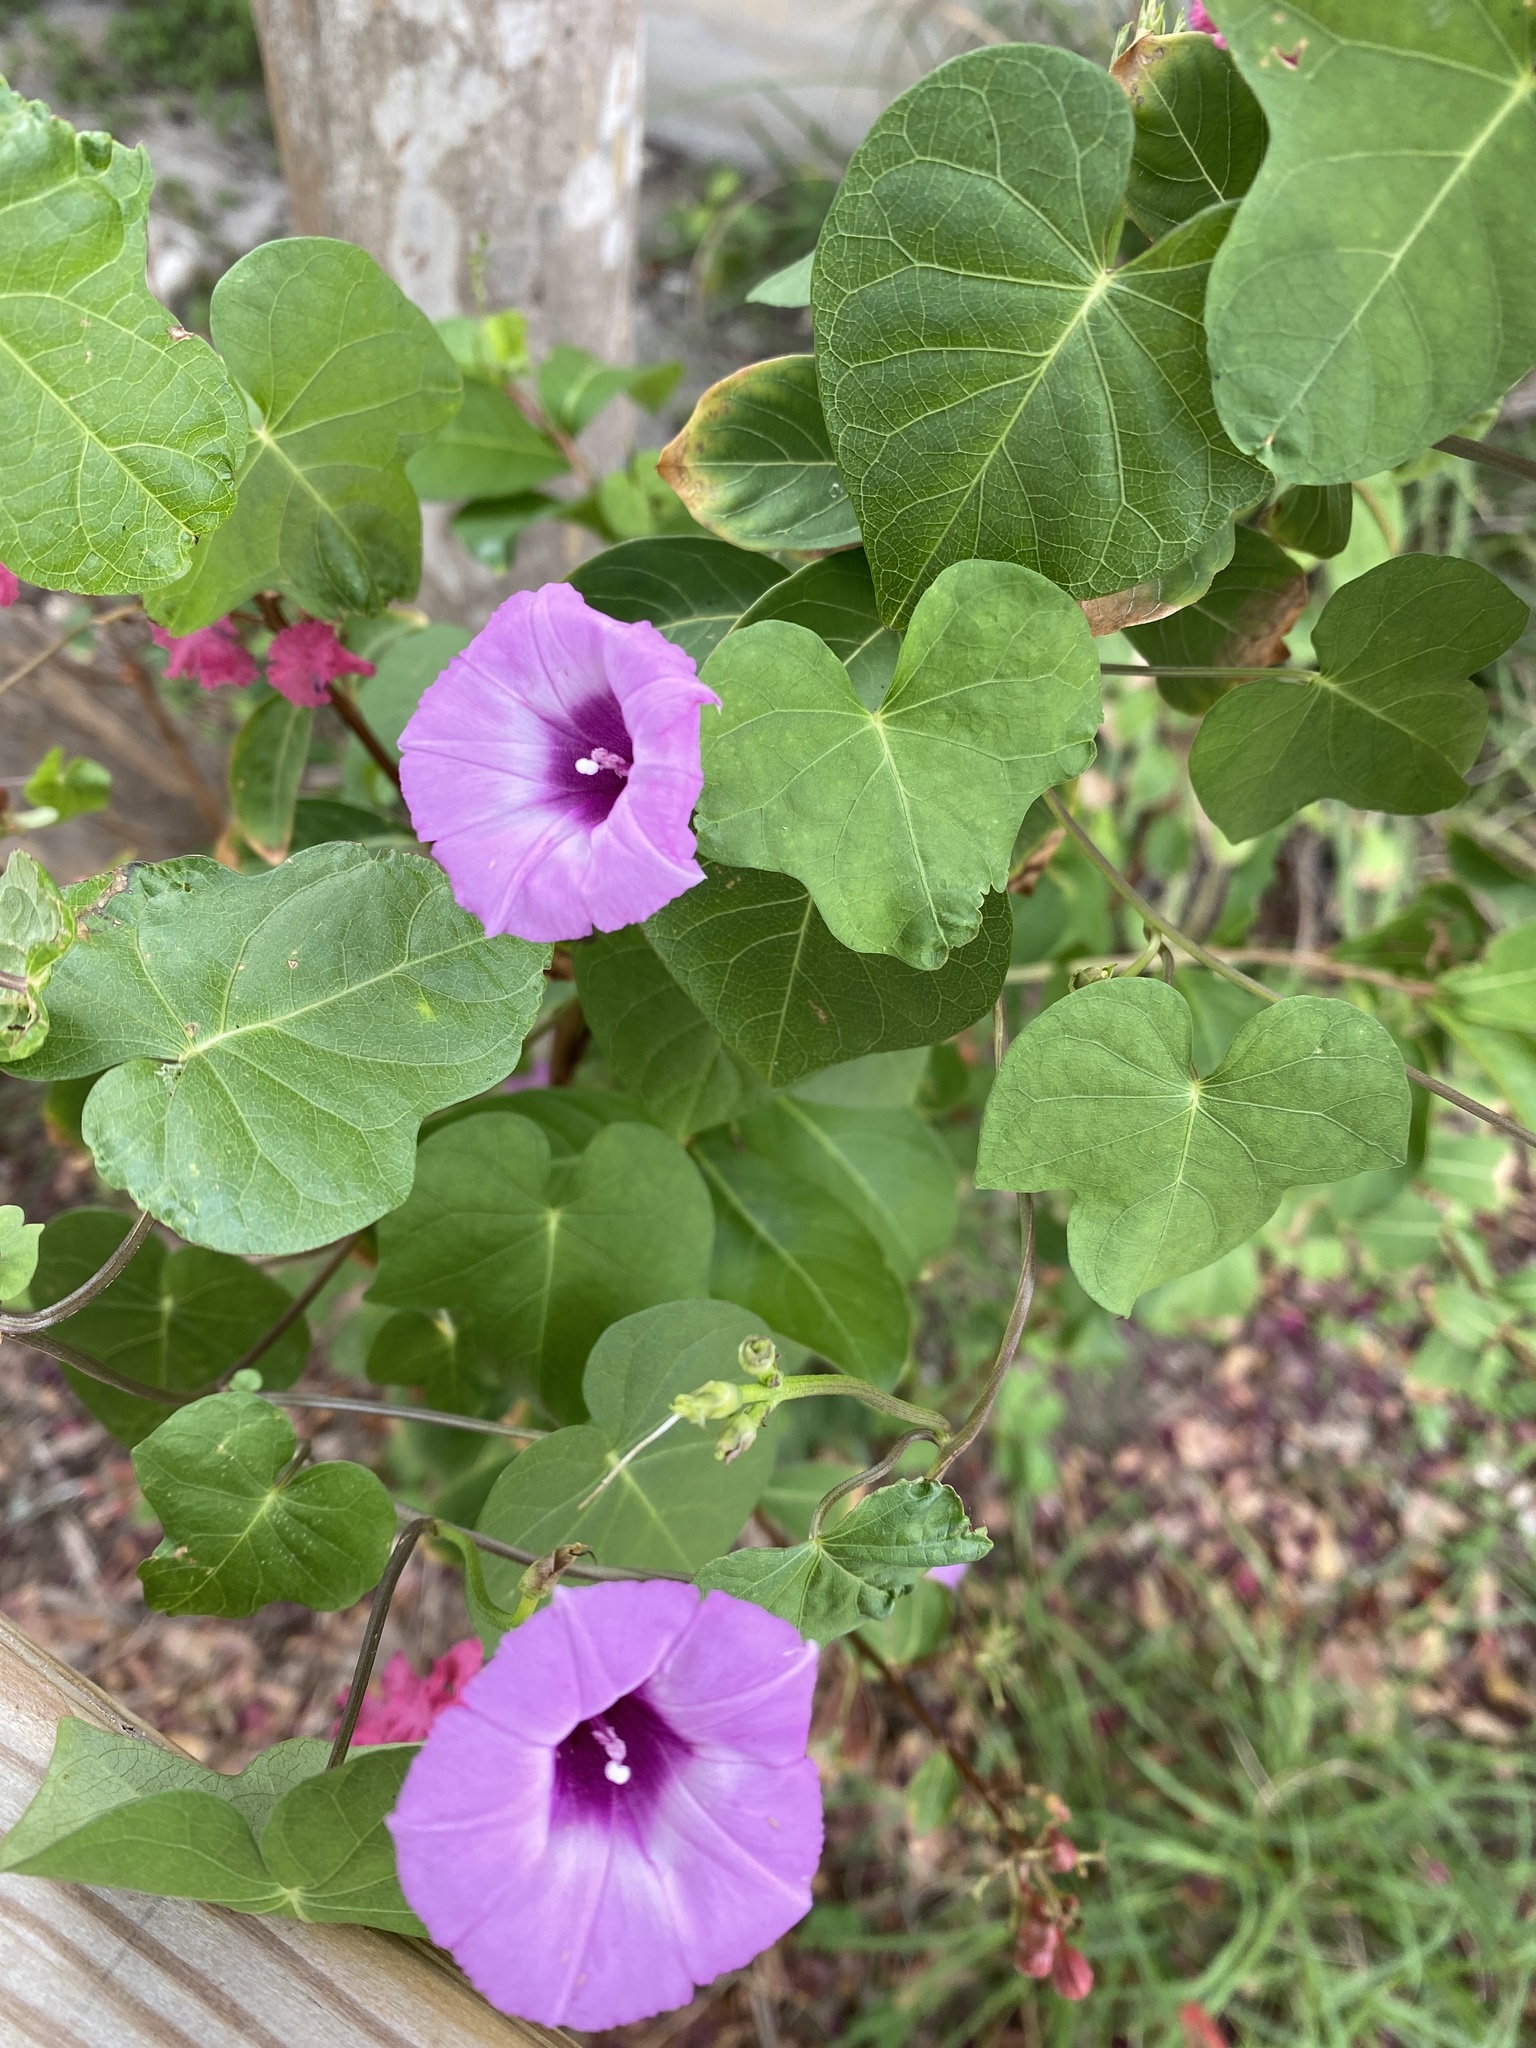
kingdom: Plantae
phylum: Tracheophyta
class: Magnoliopsida
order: Solanales
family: Convolvulaceae
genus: Ipomoea
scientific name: Ipomoea cordatotriloba
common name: Cotton morning glory
